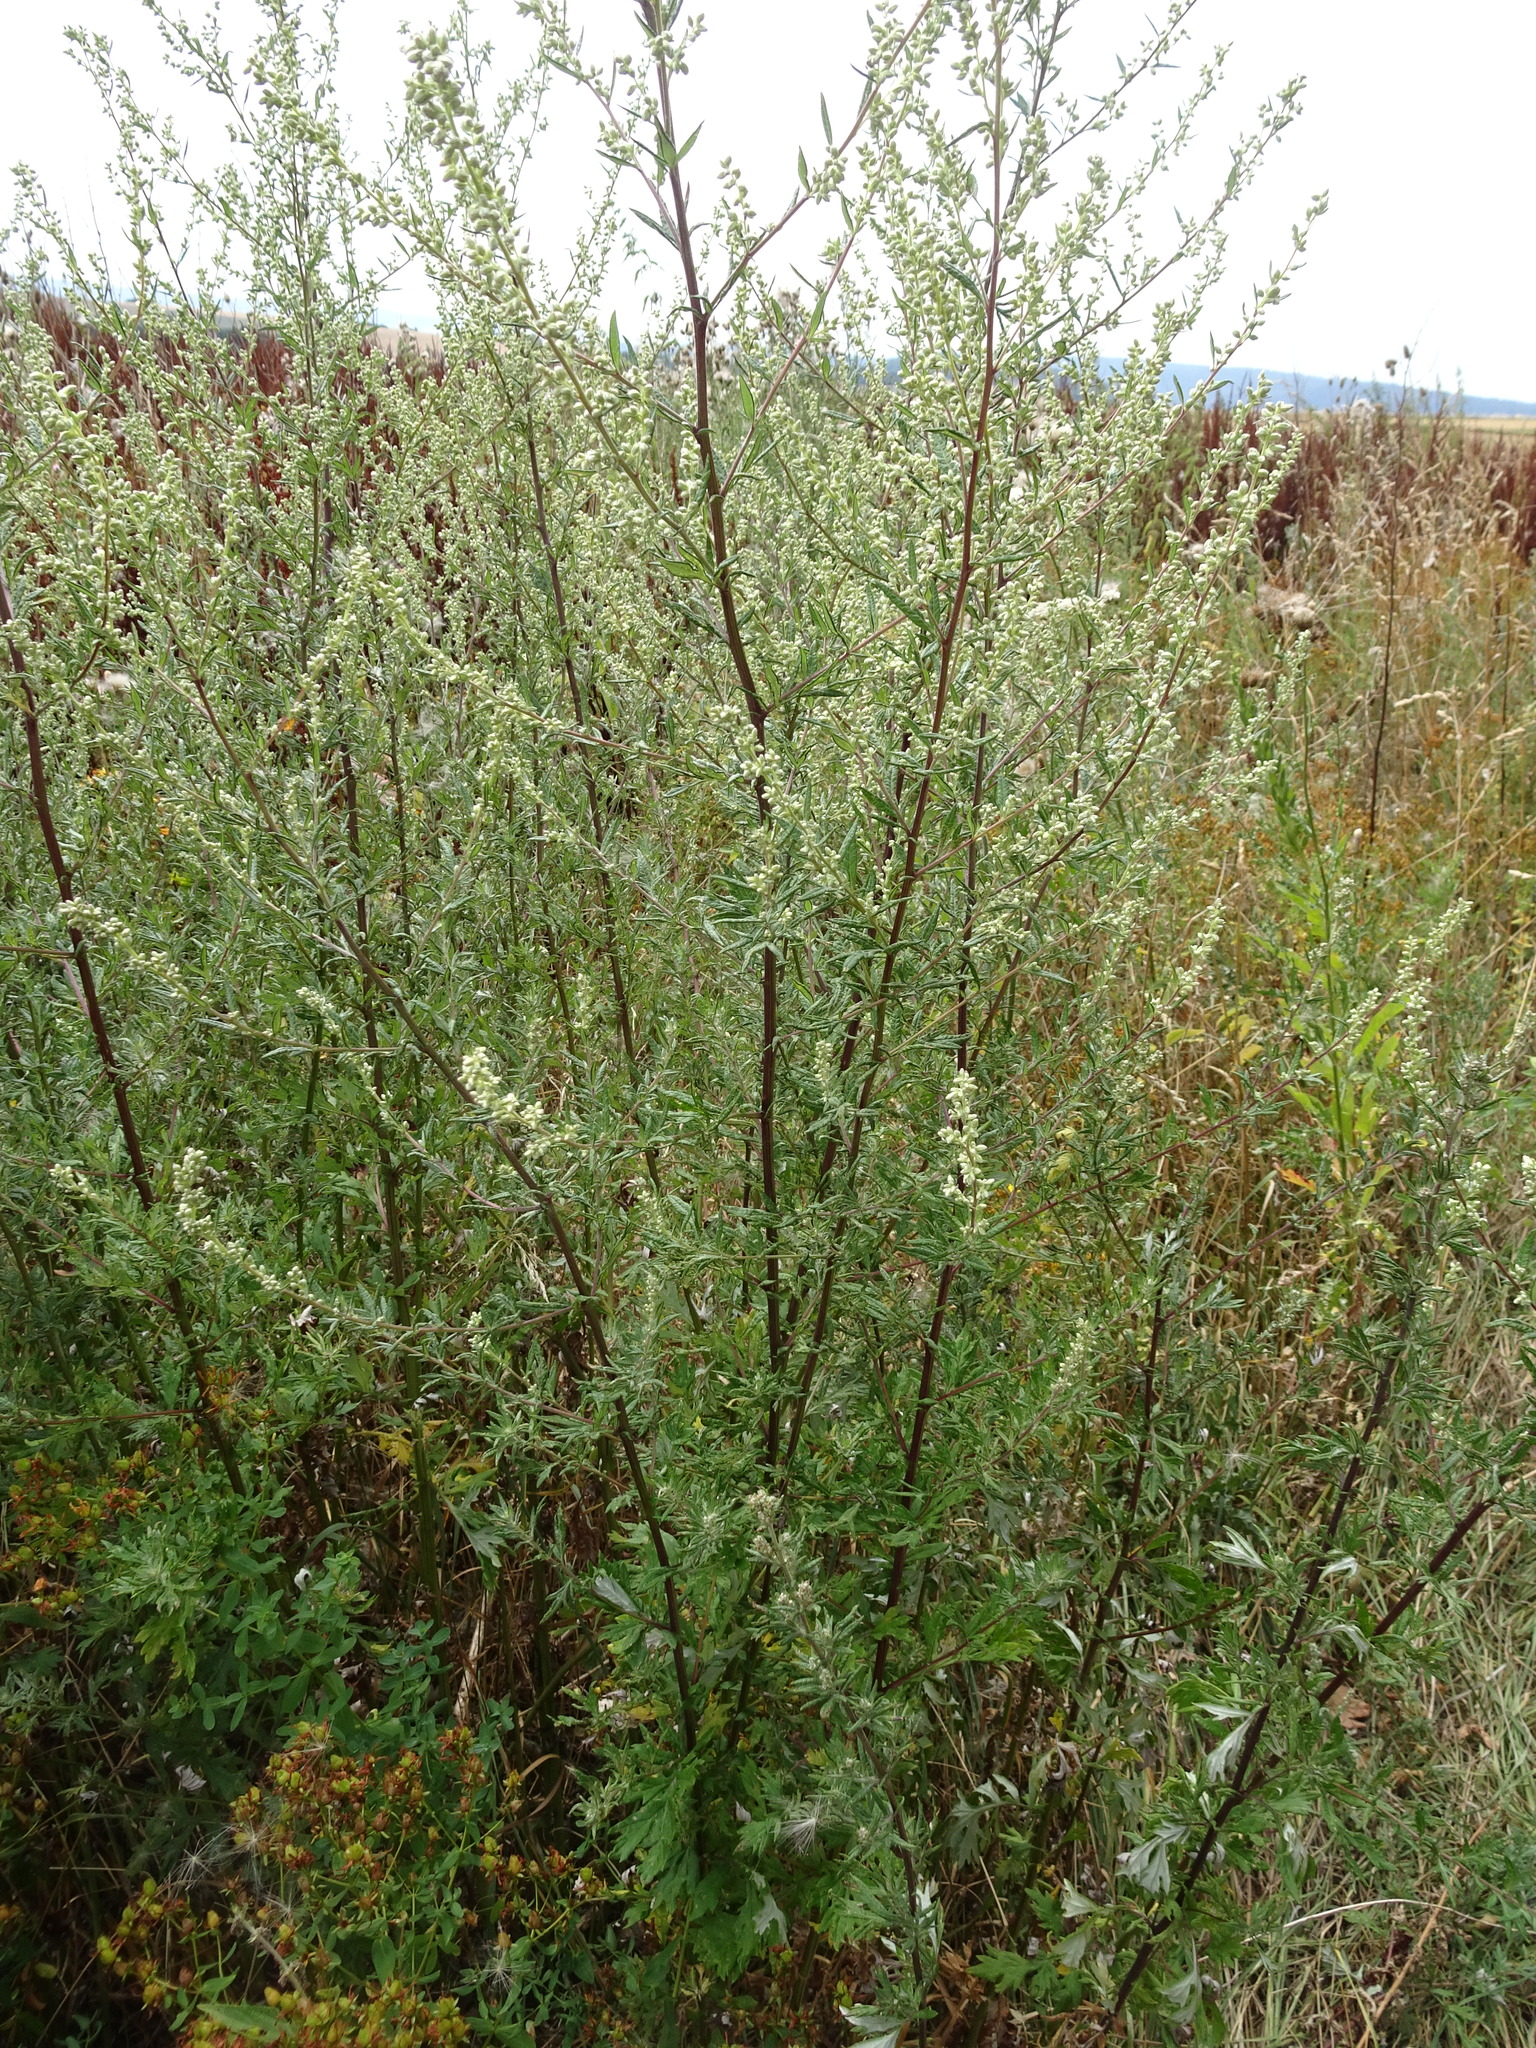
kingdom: Plantae
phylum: Tracheophyta
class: Magnoliopsida
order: Asterales
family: Asteraceae
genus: Artemisia
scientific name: Artemisia vulgaris
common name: Mugwort
